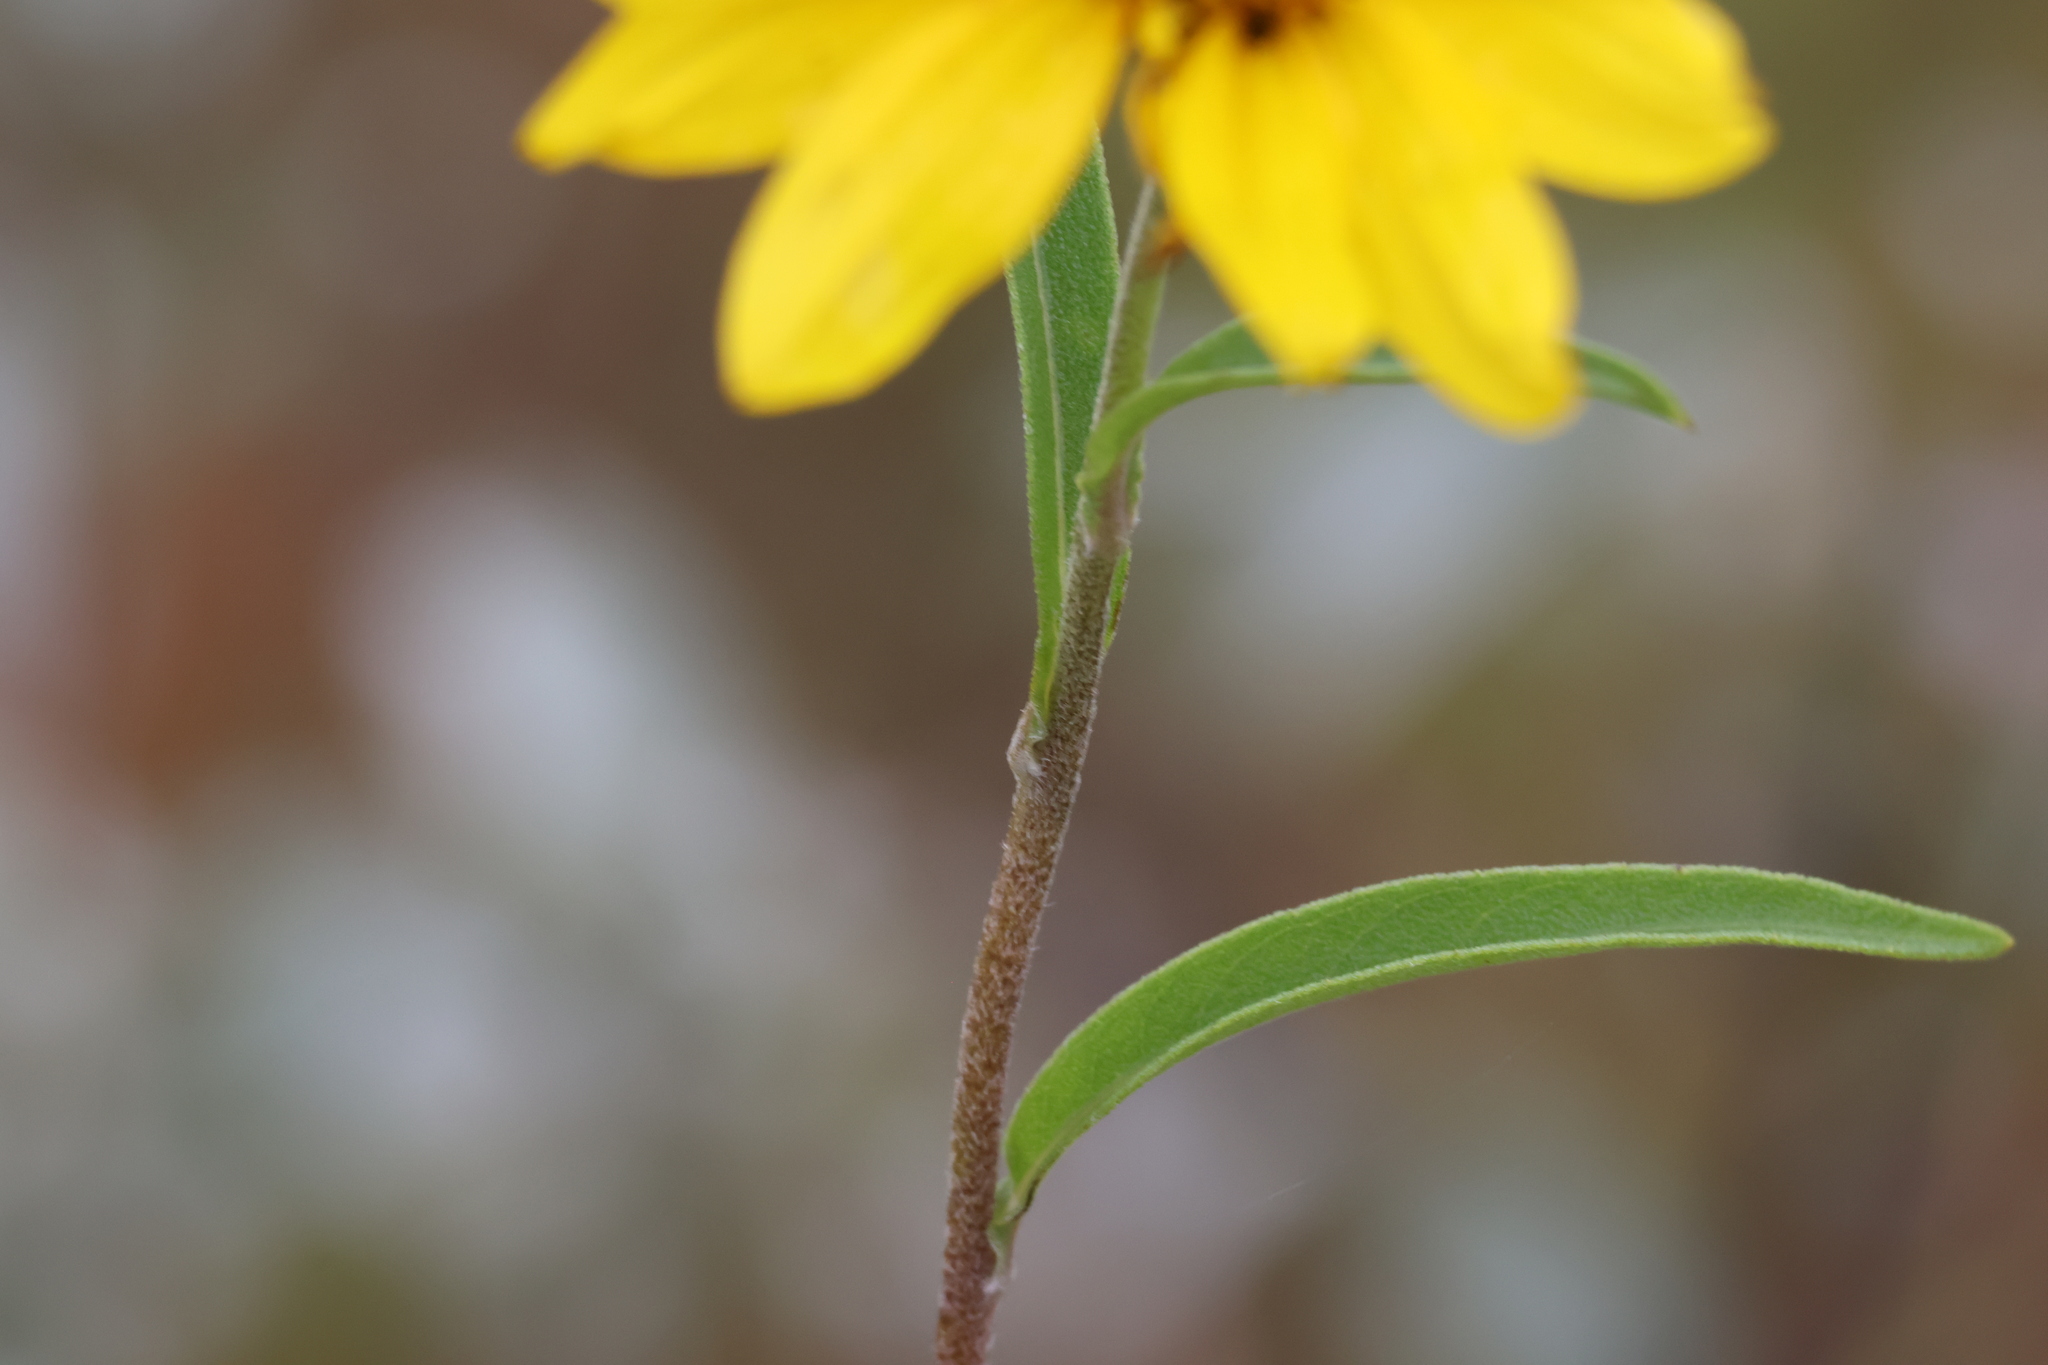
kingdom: Plantae
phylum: Tracheophyta
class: Magnoliopsida
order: Asterales
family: Asteraceae
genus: Helianthus
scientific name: Helianthus maximiliani
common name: Maximilian's sunflower
